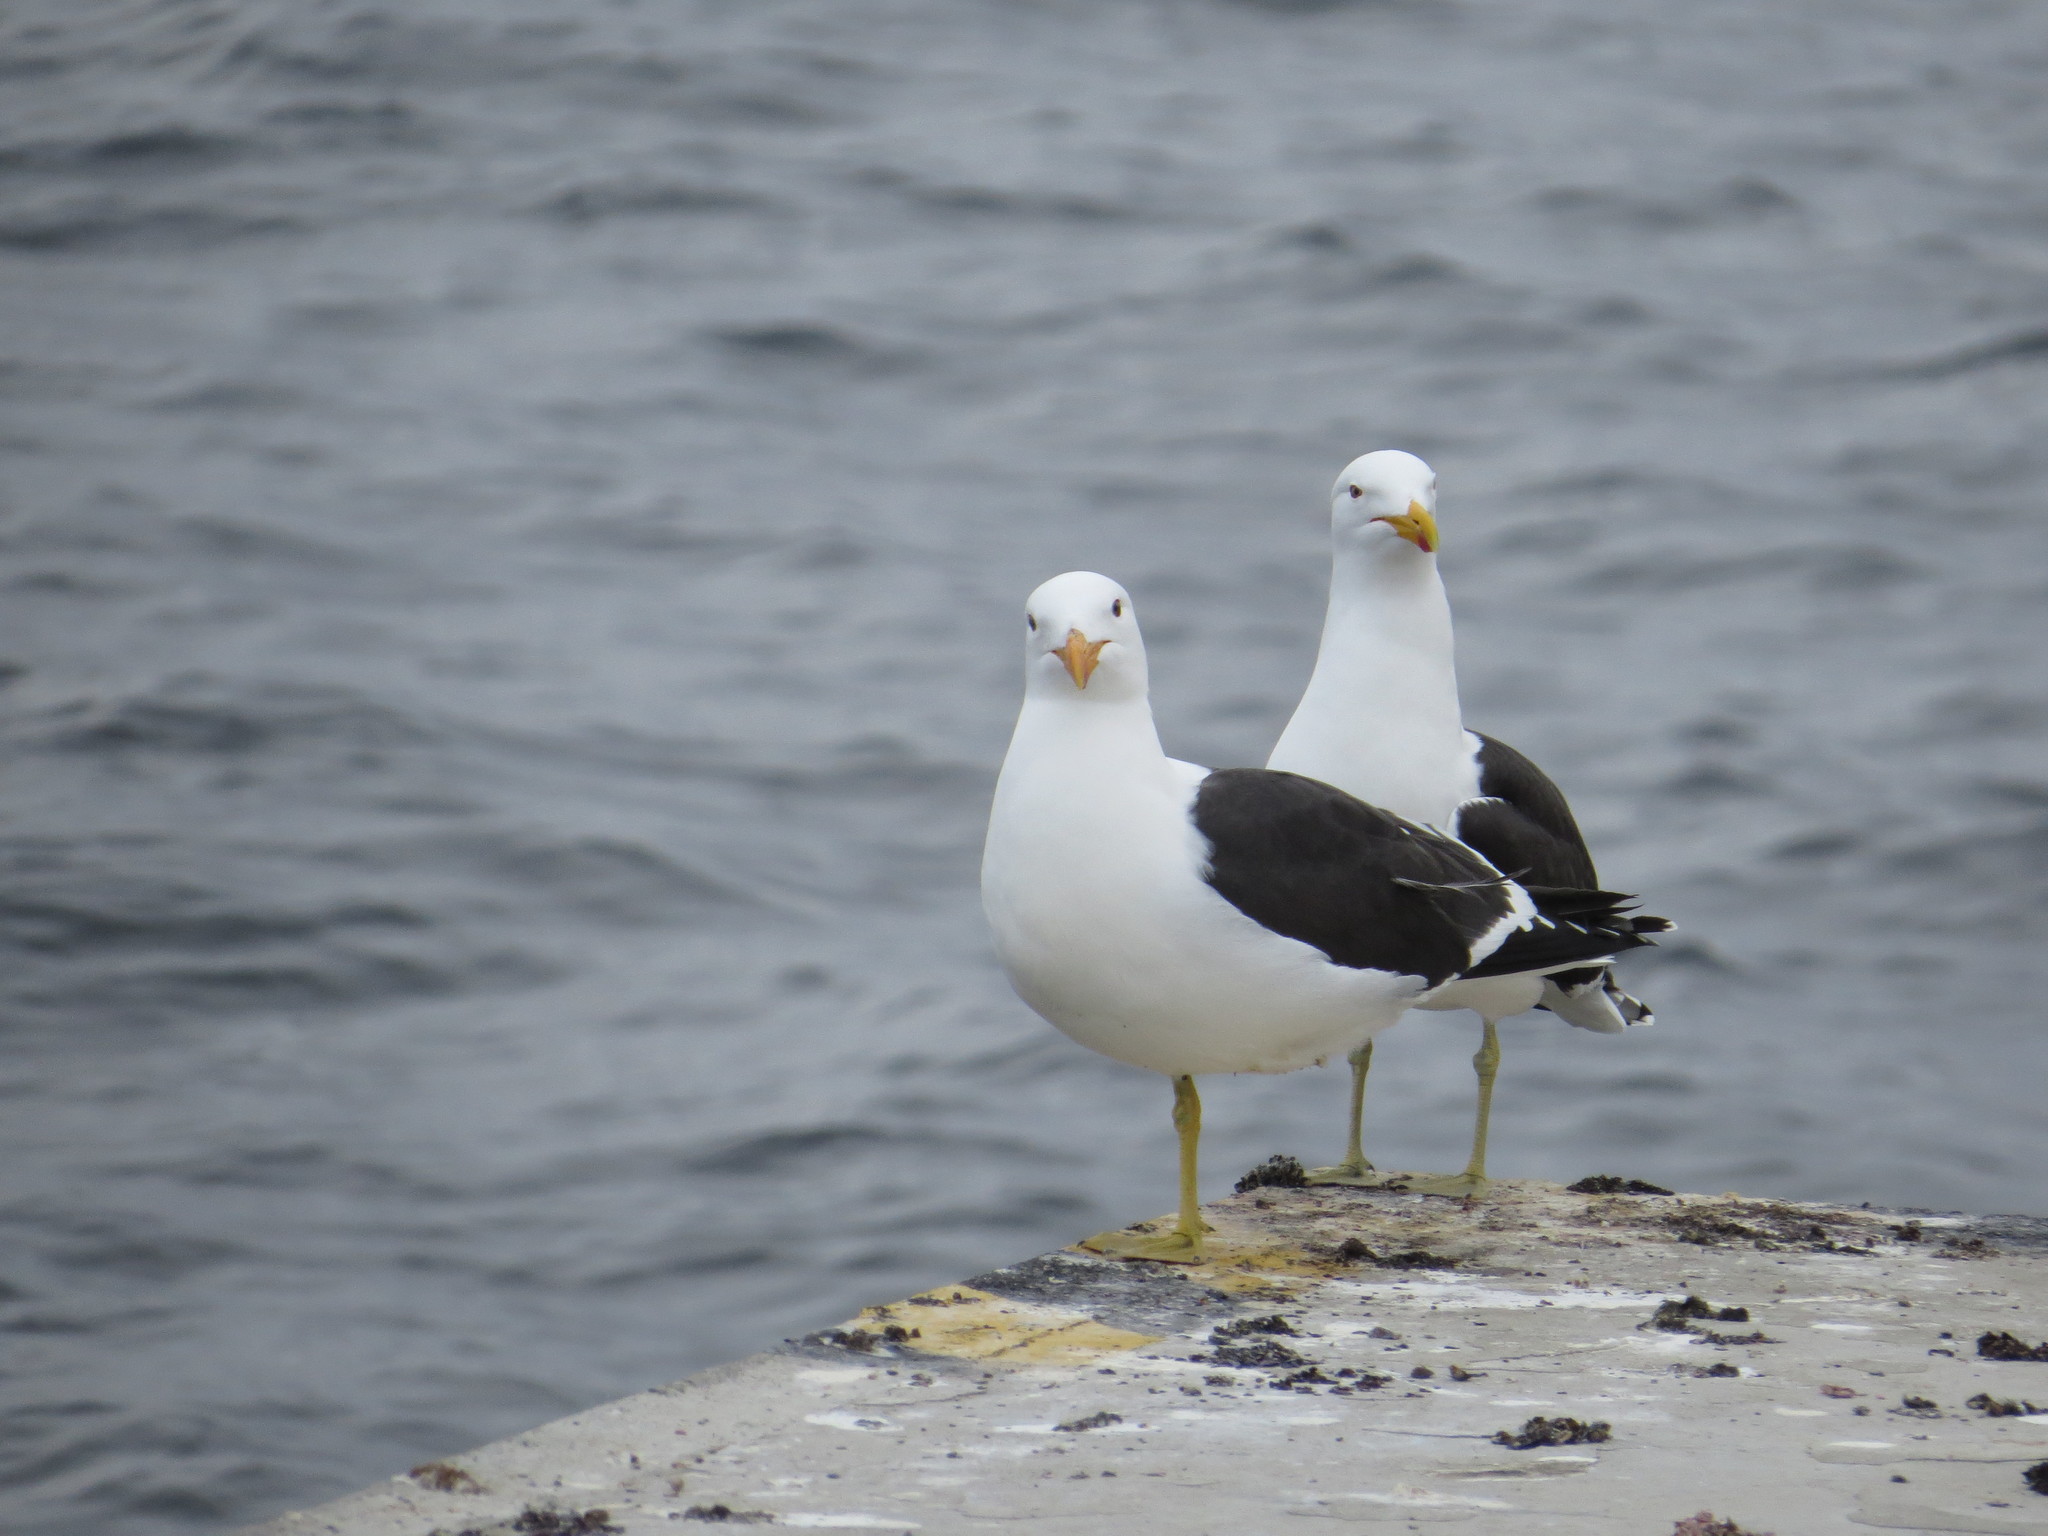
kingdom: Animalia
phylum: Chordata
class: Aves
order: Charadriiformes
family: Laridae
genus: Larus
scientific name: Larus dominicanus
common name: Kelp gull
